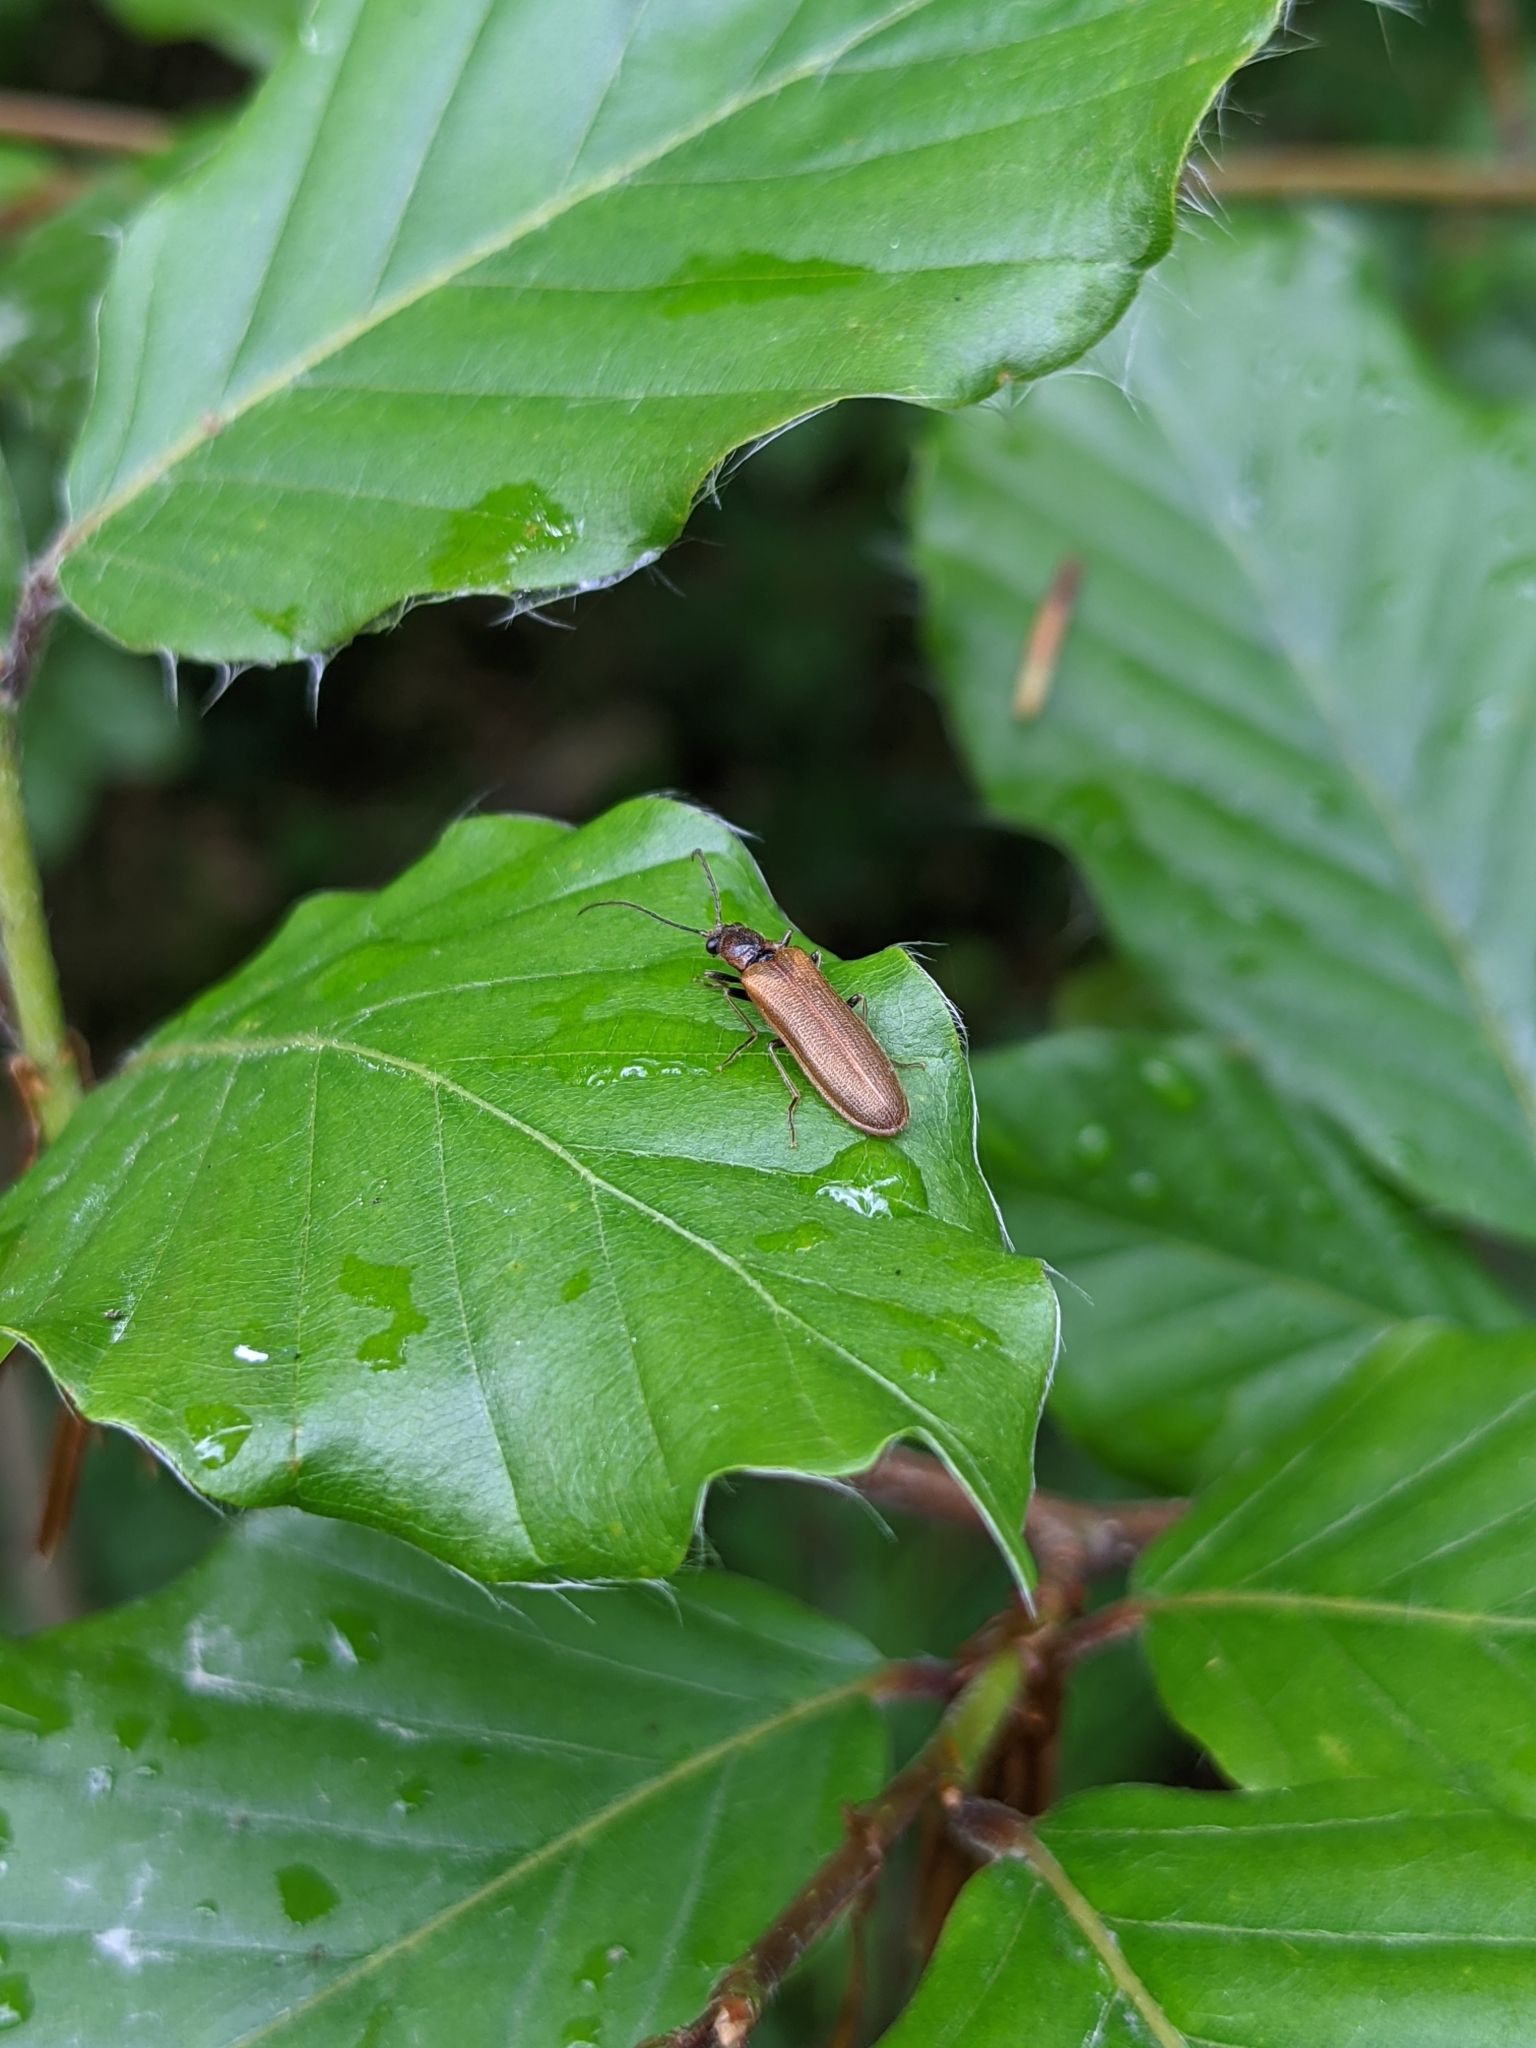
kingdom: Animalia
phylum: Arthropoda
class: Insecta
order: Coleoptera
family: Elateridae
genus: Denticollis
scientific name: Denticollis linearis
